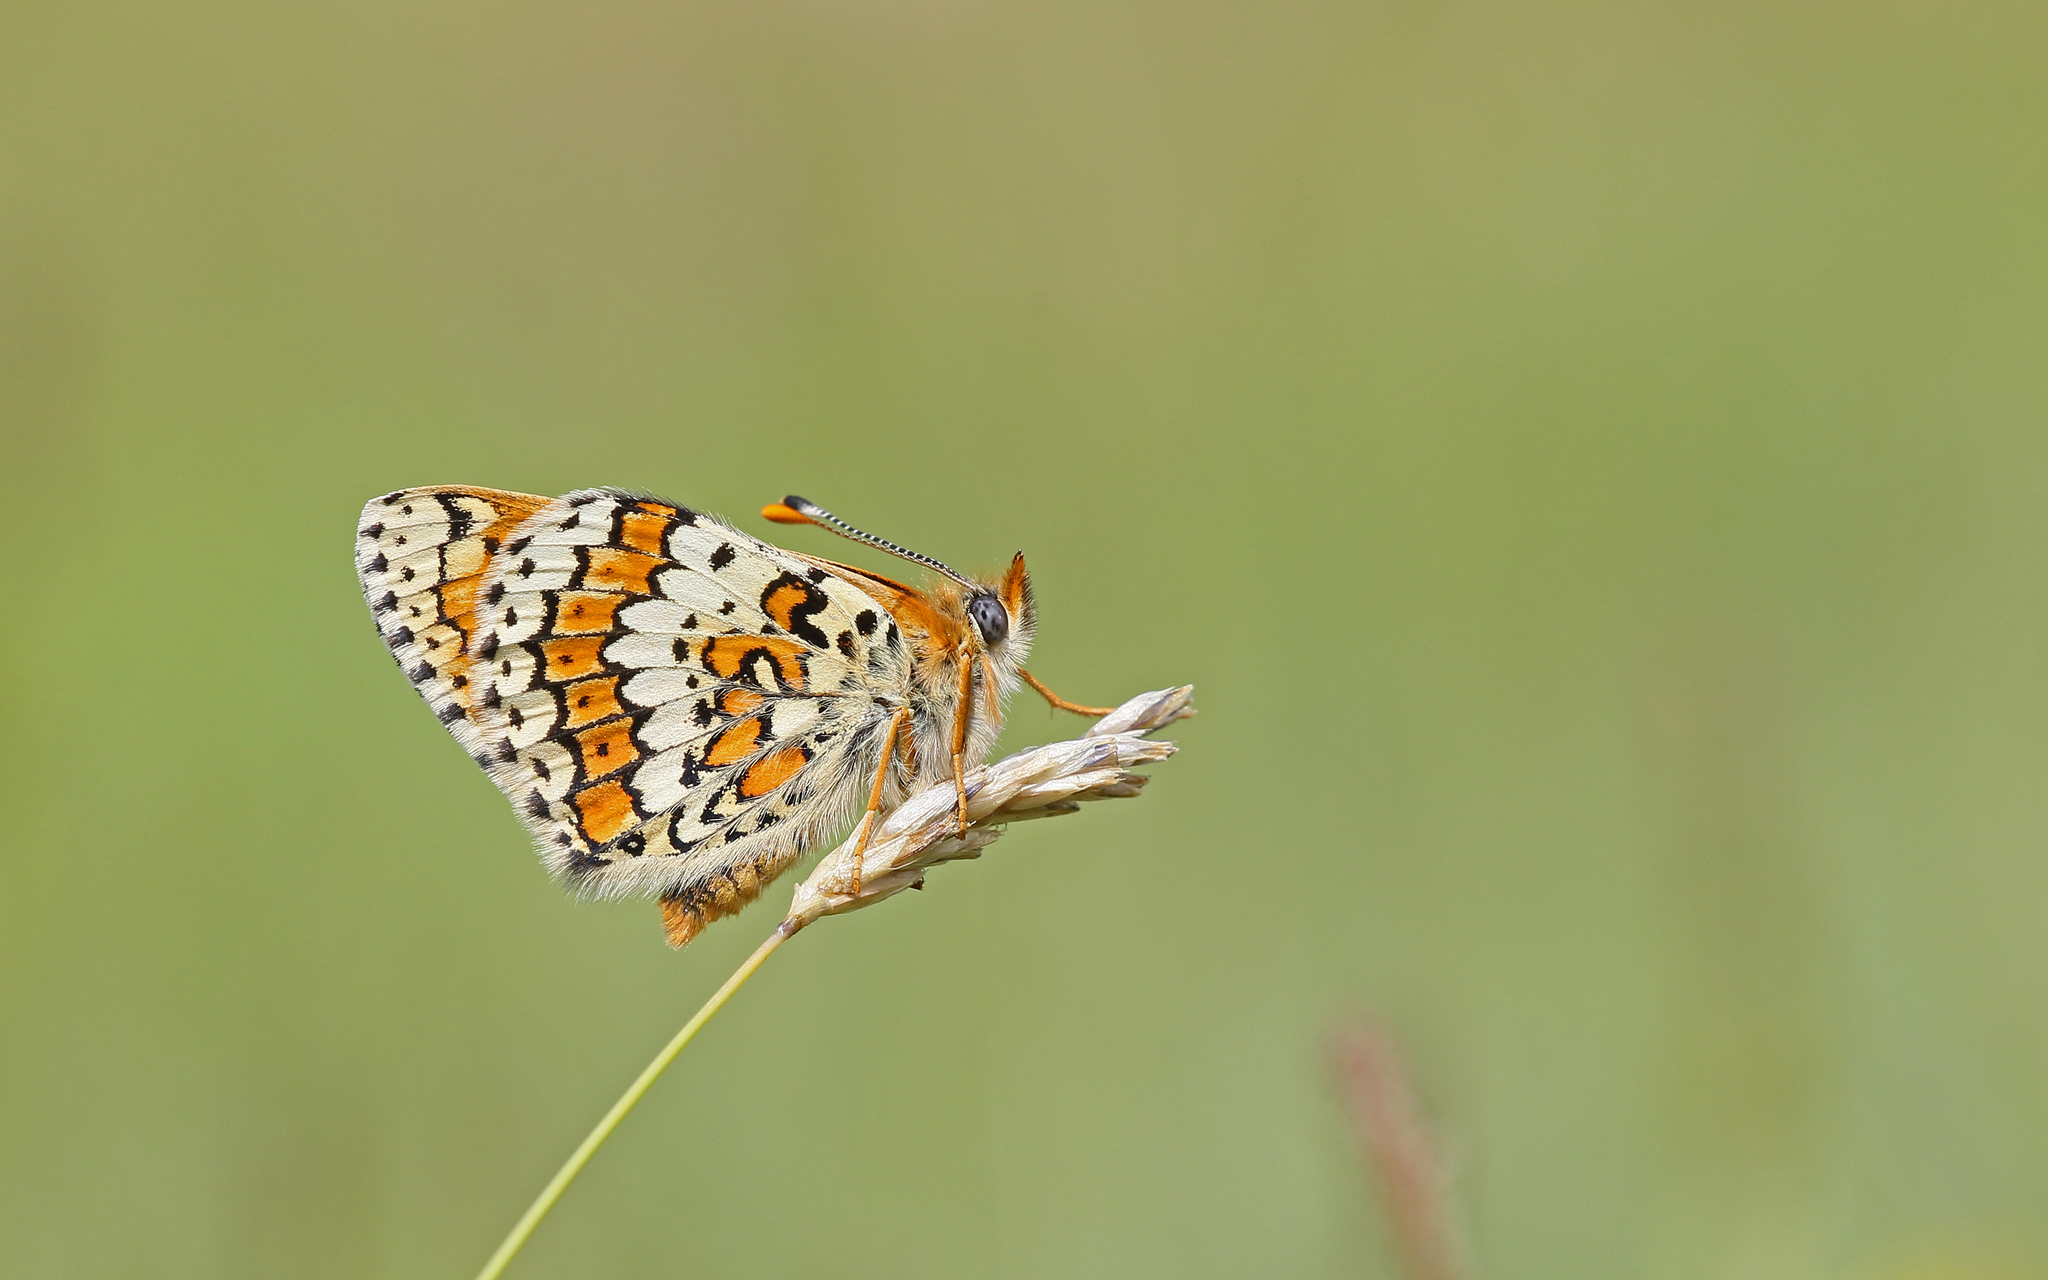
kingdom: Animalia
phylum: Arthropoda
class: Insecta
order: Lepidoptera
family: Nymphalidae
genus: Melitaea
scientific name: Melitaea cinxia
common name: Glanville fritillary
